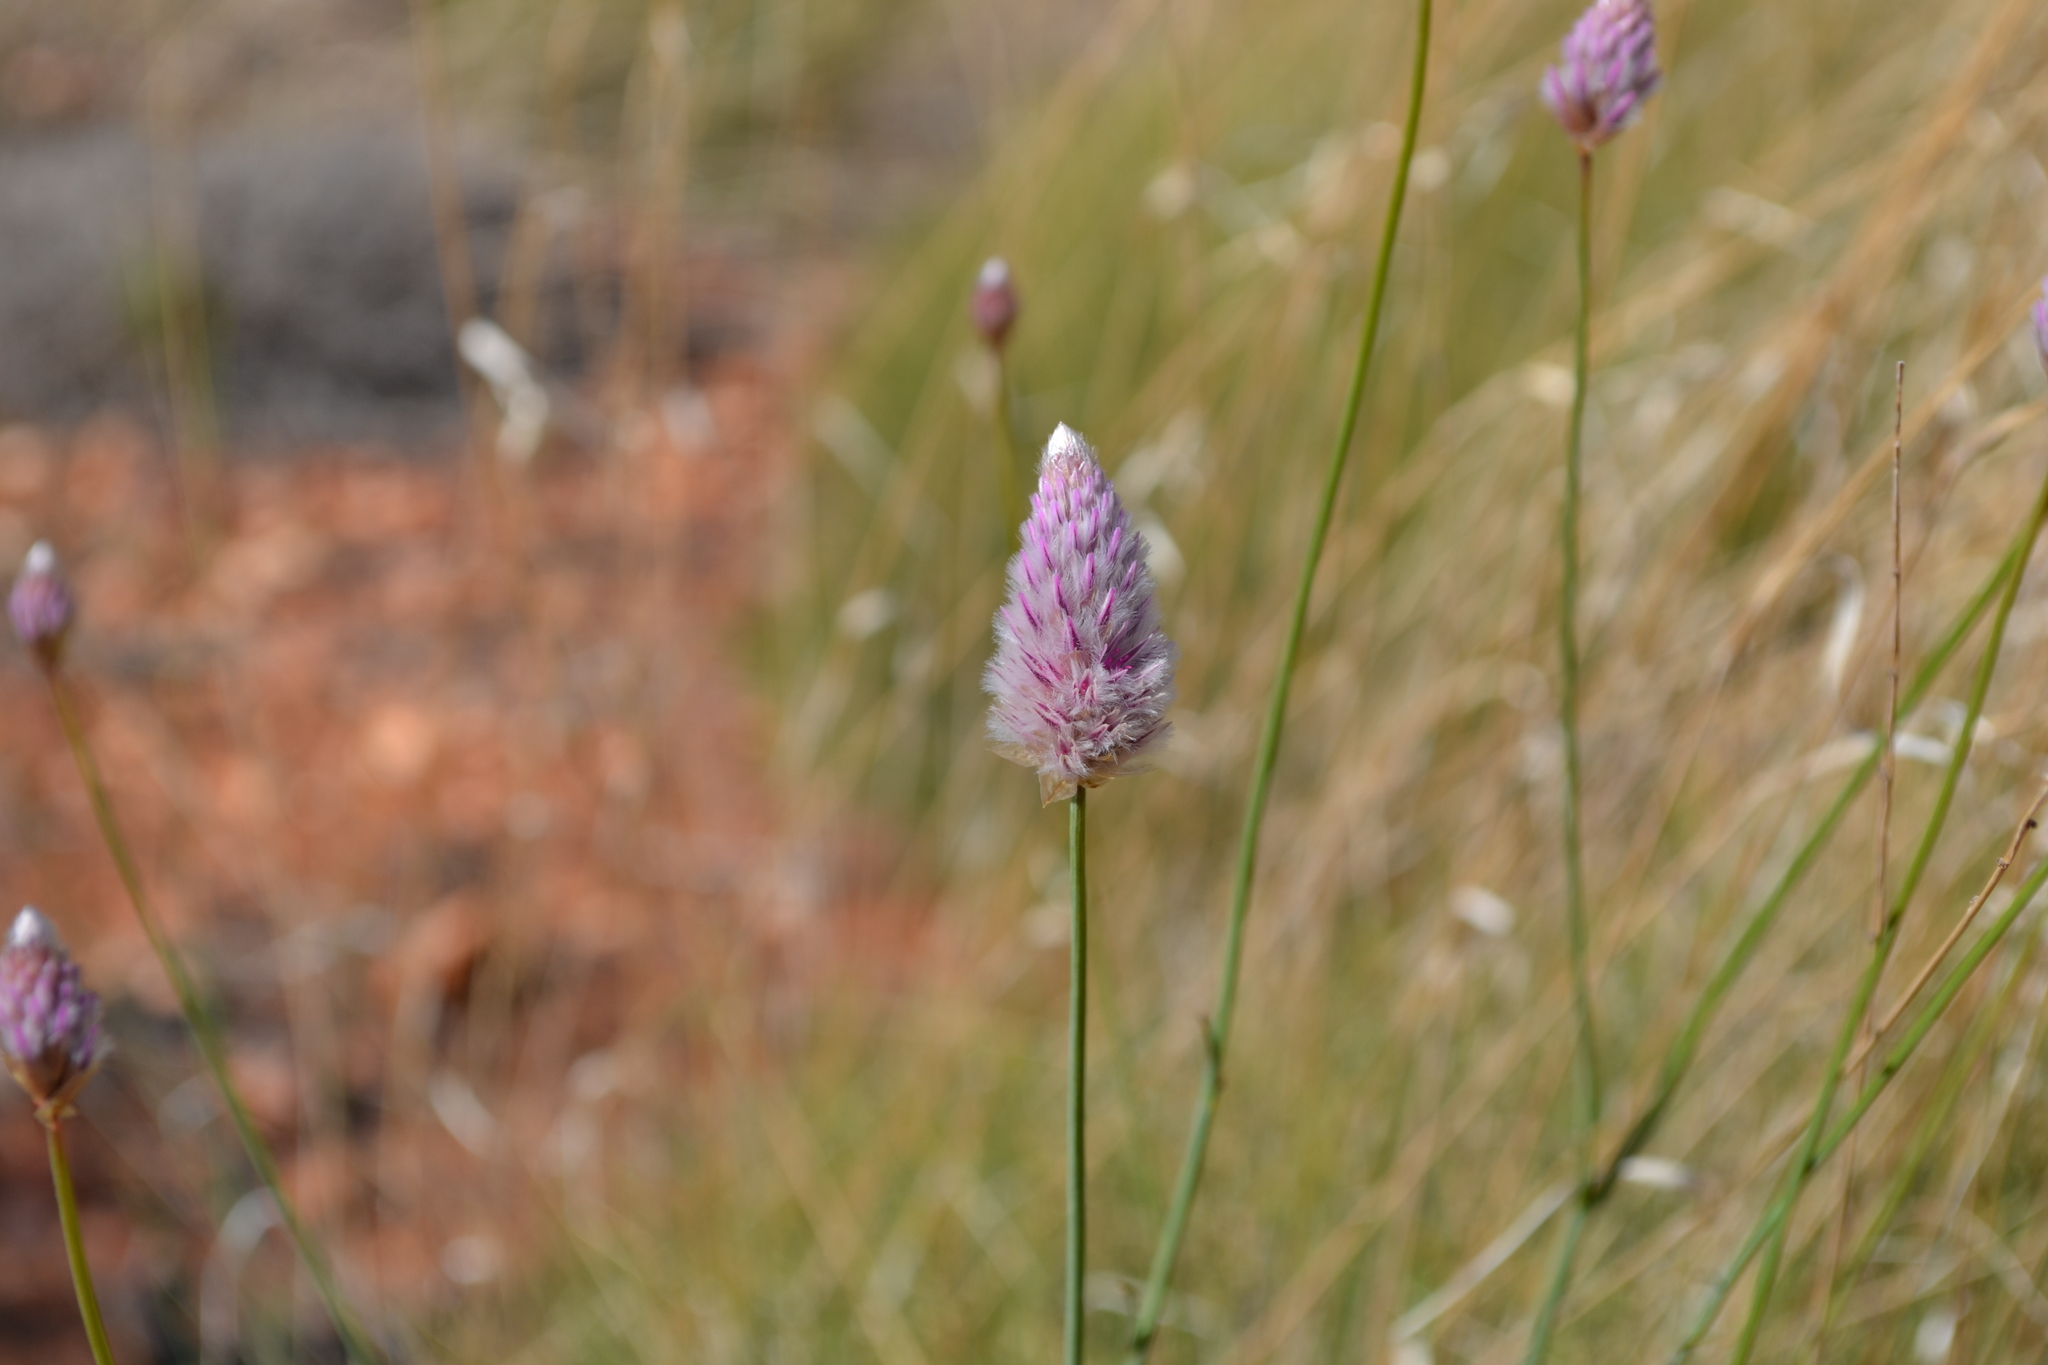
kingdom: Plantae
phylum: Tracheophyta
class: Magnoliopsida
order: Caryophyllales
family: Amaranthaceae
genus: Ptilotus
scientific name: Ptilotus calostachyus
